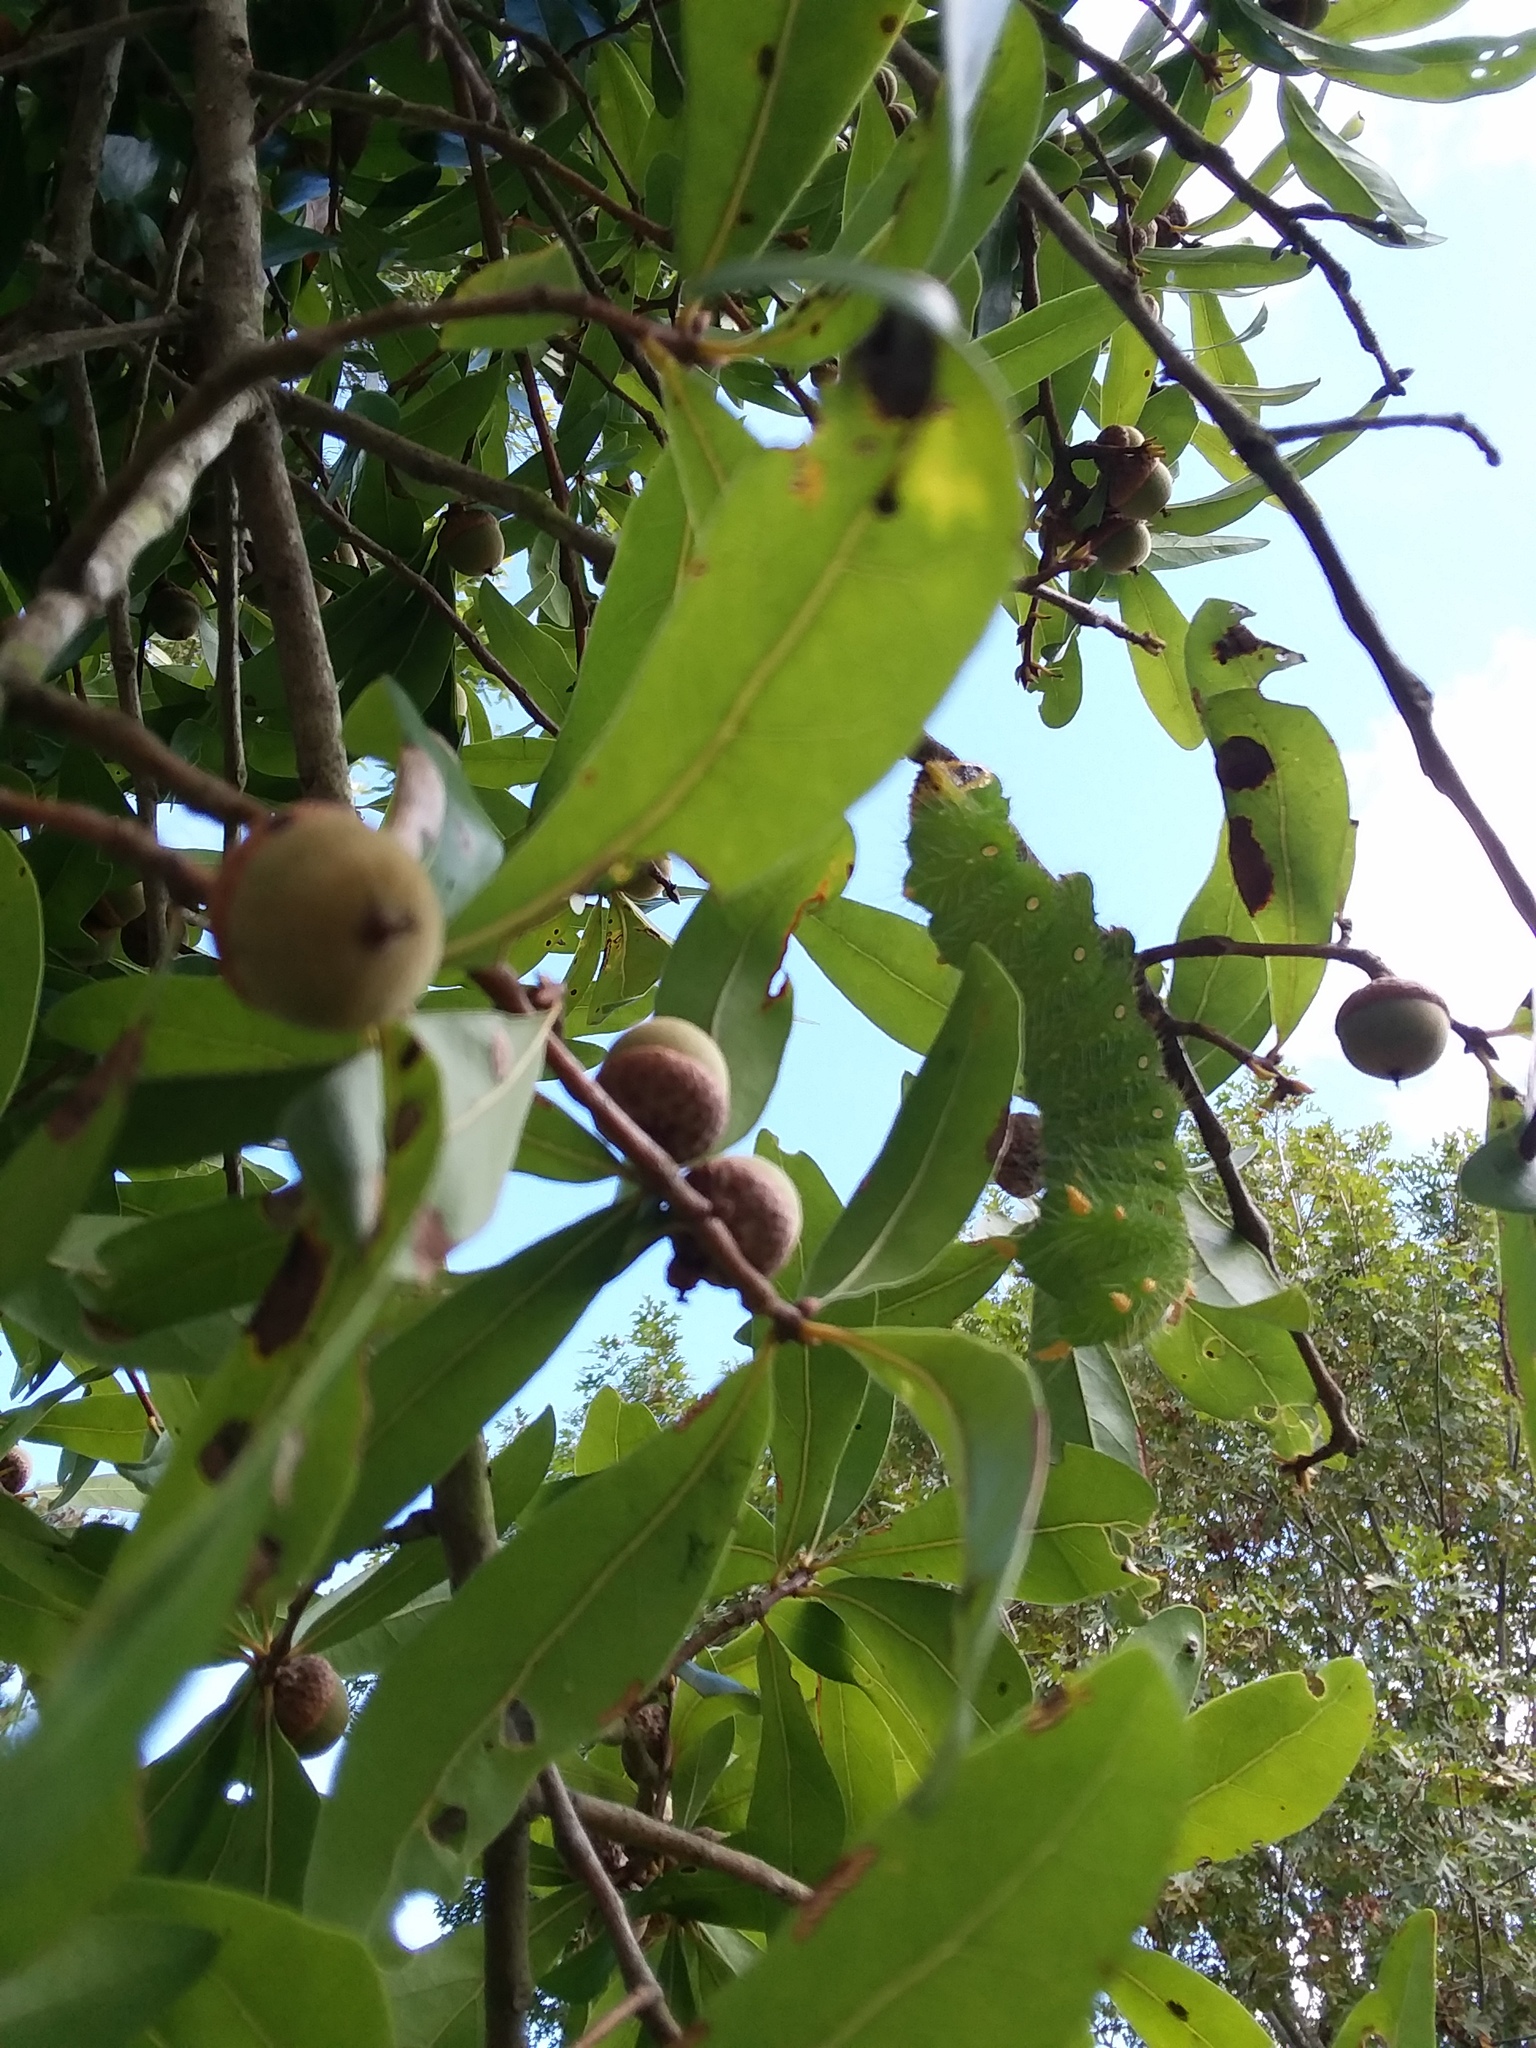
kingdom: Animalia
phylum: Arthropoda
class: Insecta
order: Lepidoptera
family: Saturniidae
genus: Eacles
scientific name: Eacles imperialis
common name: Imperial moth
